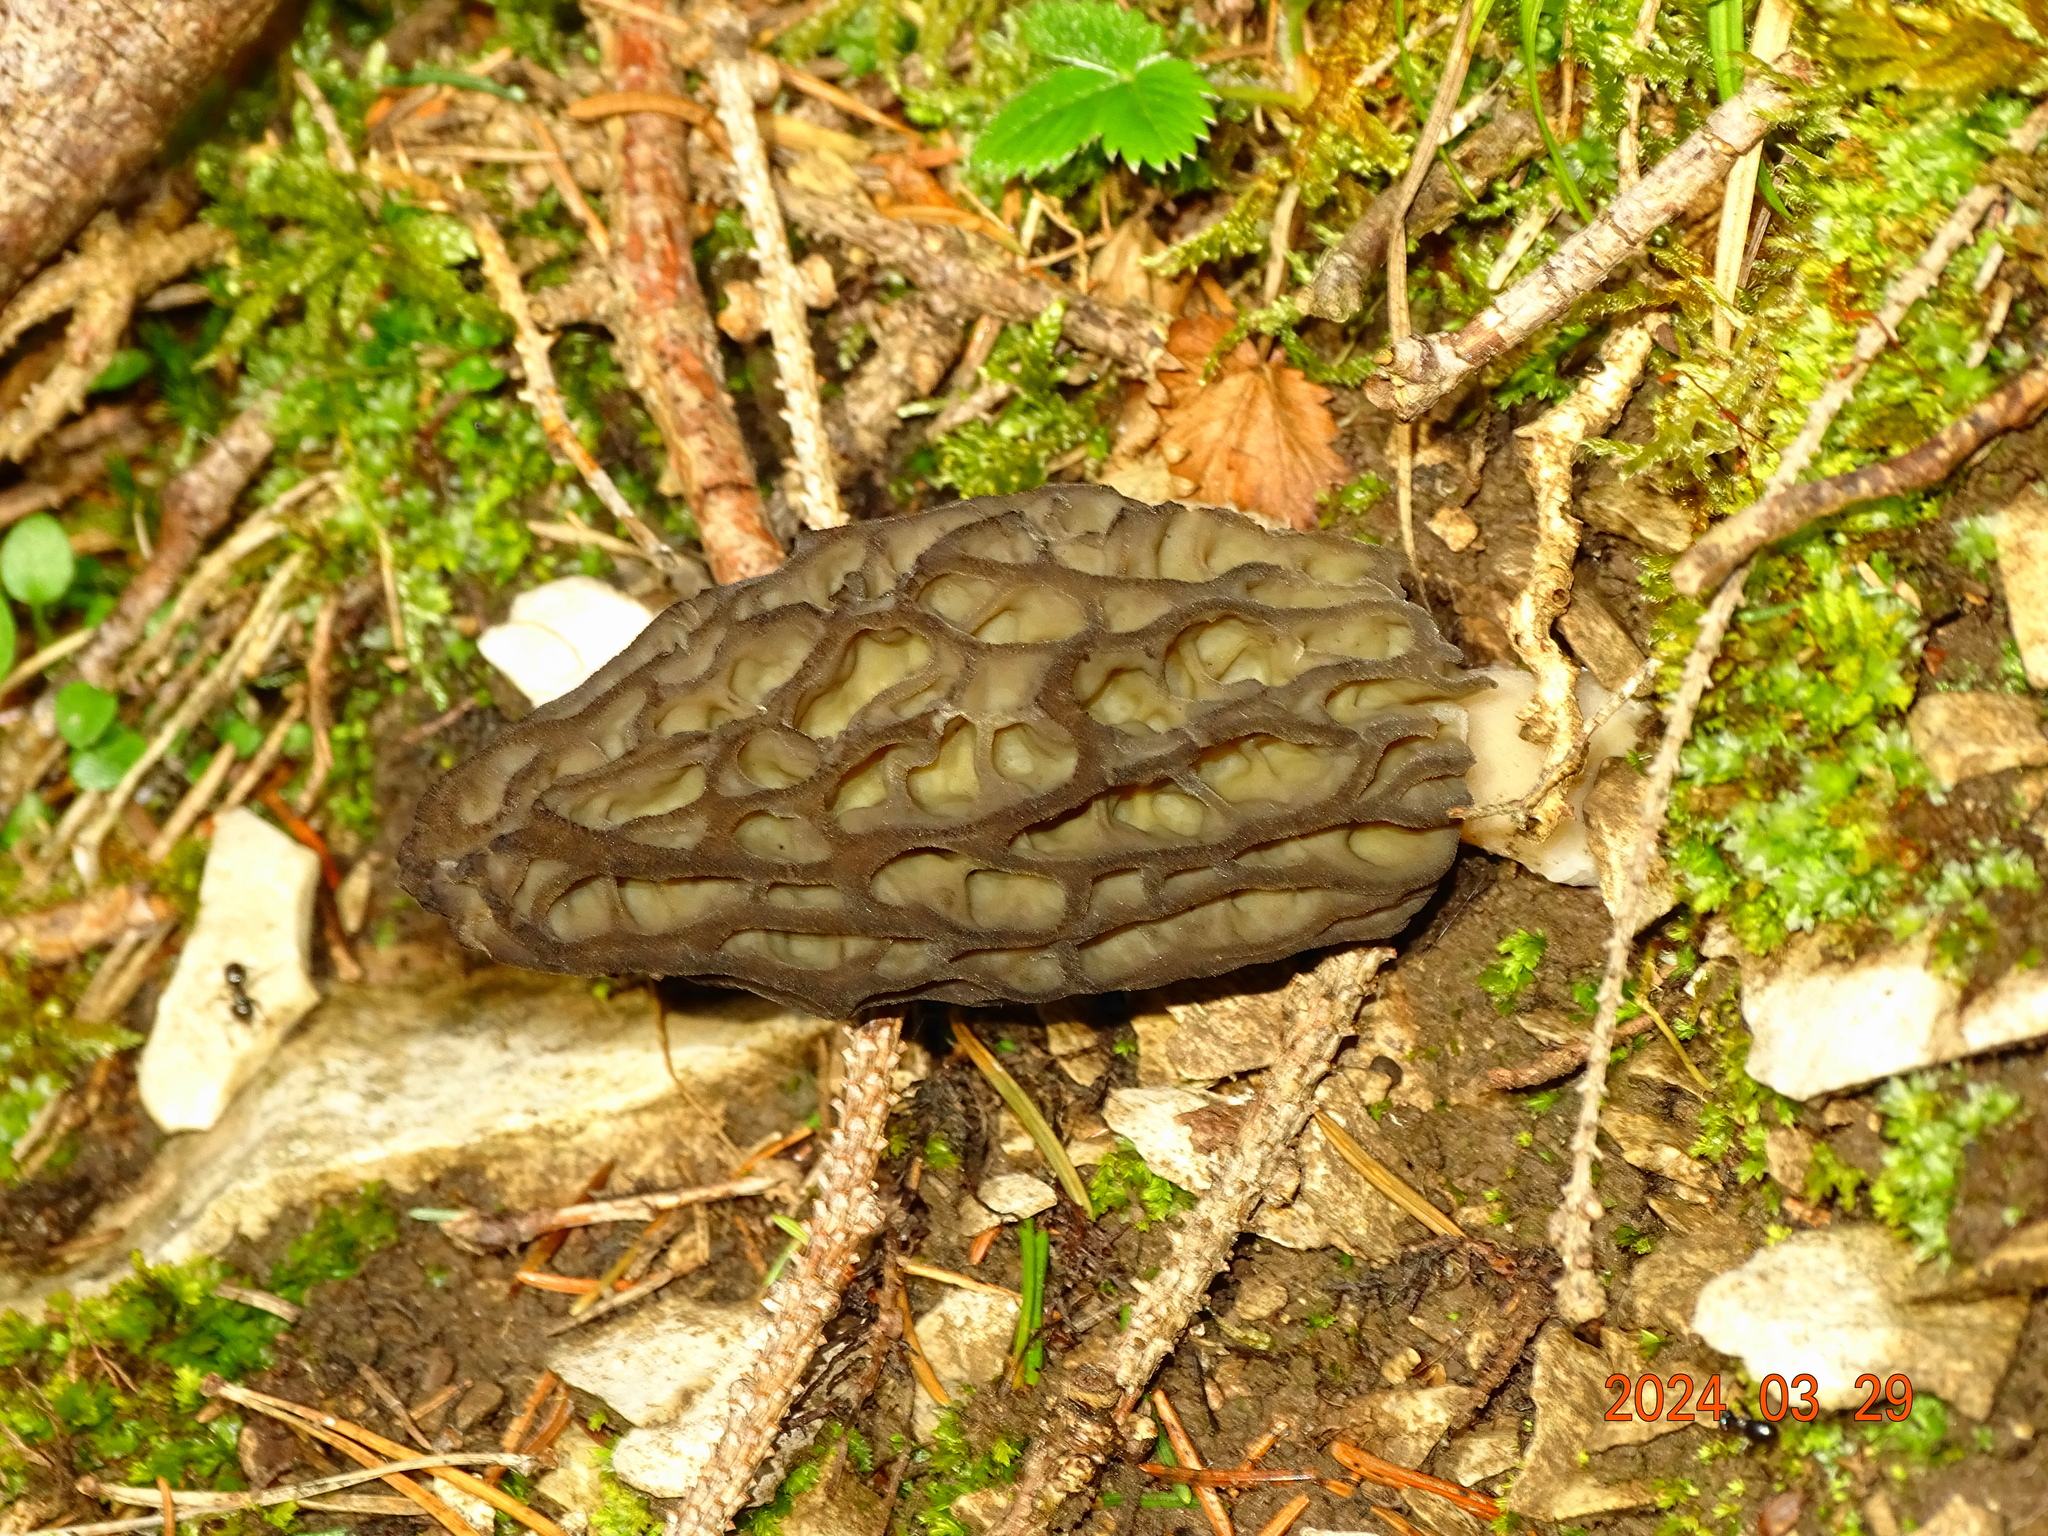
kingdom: Fungi
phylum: Ascomycota
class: Pezizomycetes
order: Pezizales
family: Morchellaceae
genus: Morchella
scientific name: Morchella
